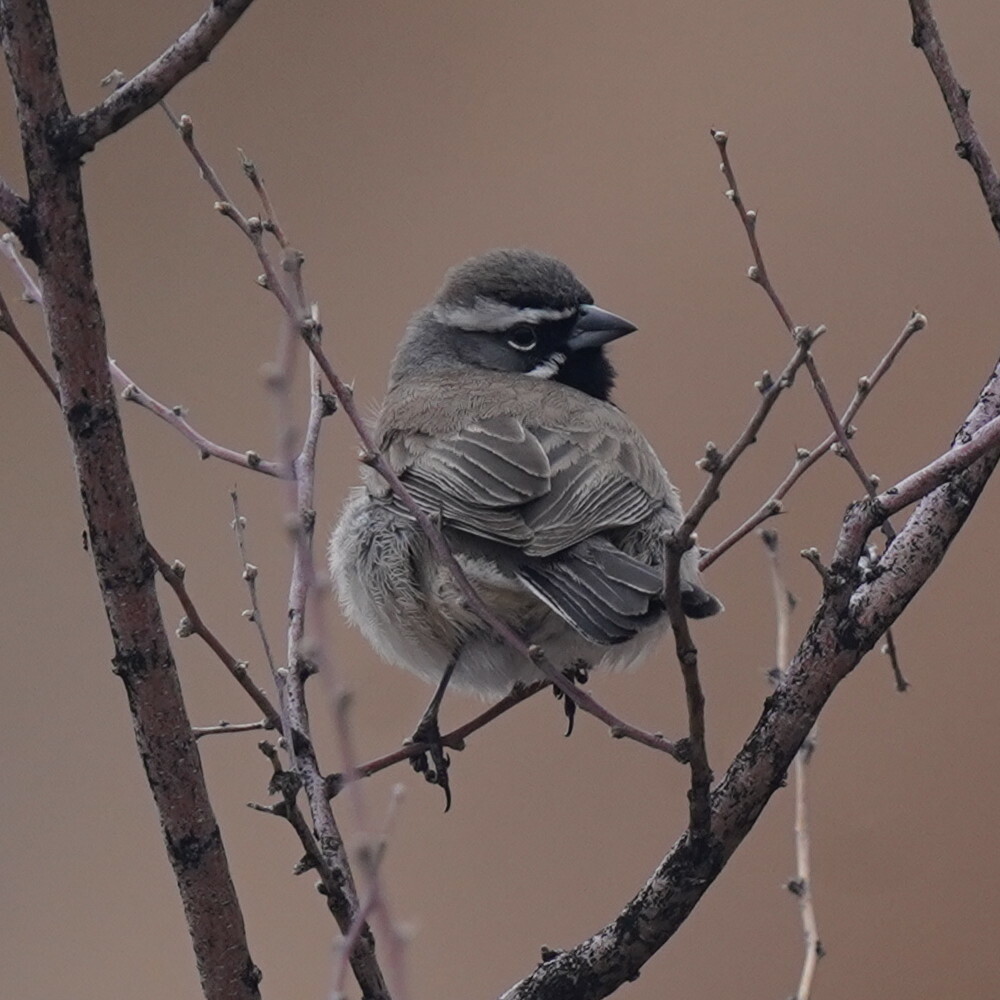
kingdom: Animalia
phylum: Chordata
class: Aves
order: Passeriformes
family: Passerellidae
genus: Amphispiza
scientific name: Amphispiza bilineata
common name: Black-throated sparrow
